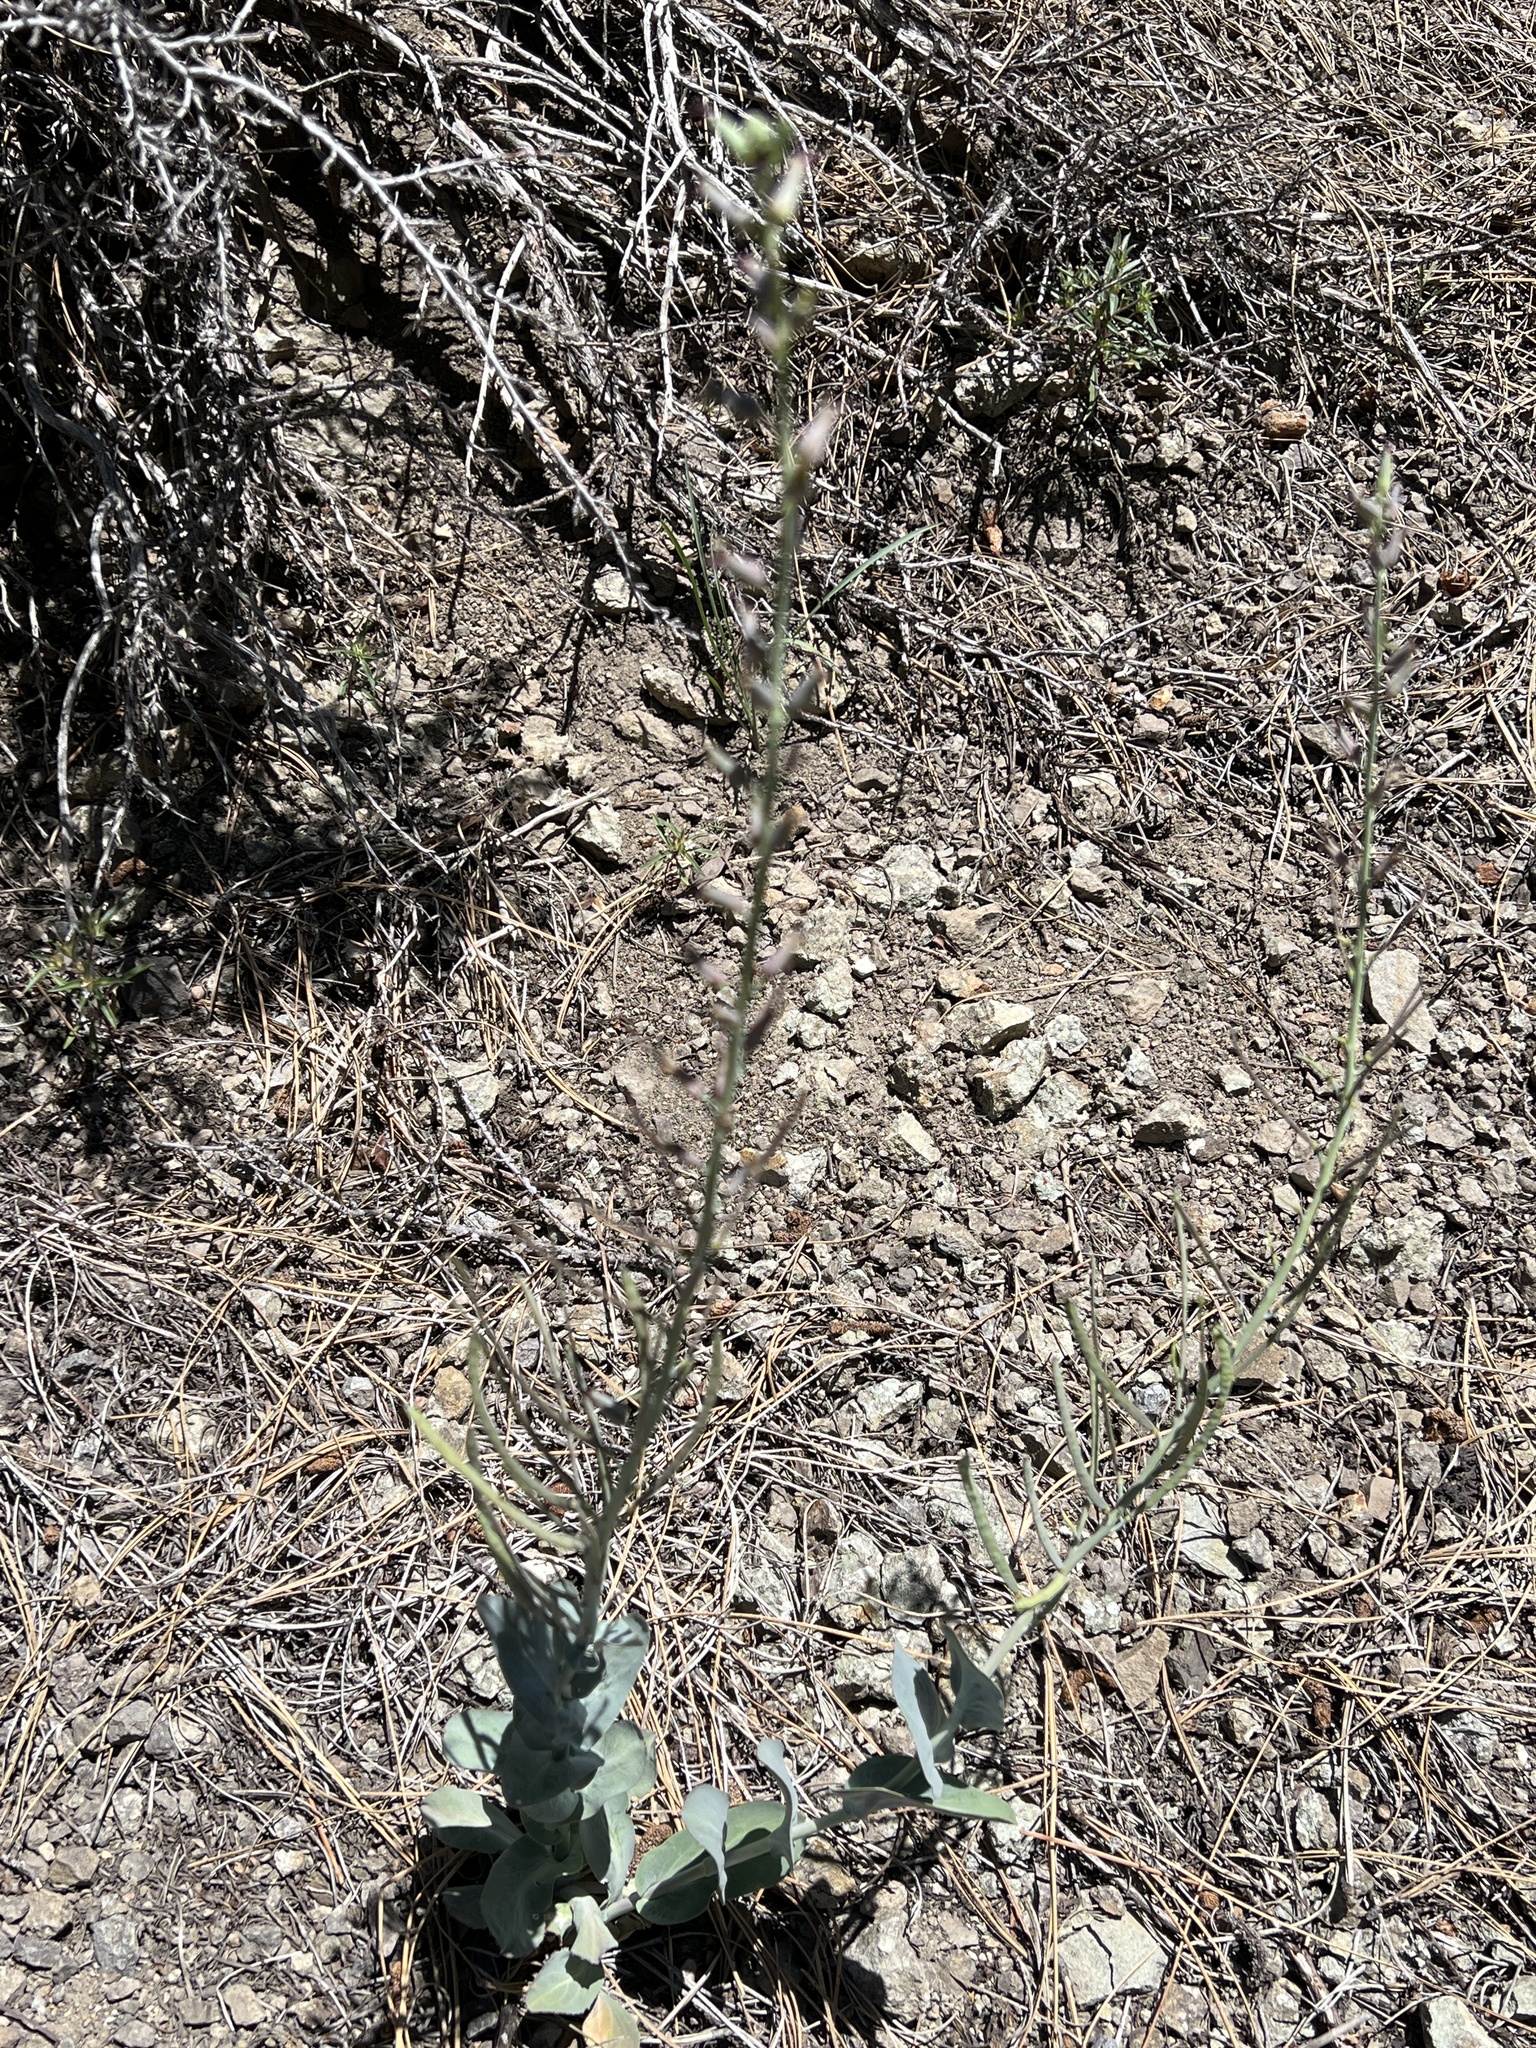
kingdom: Plantae
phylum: Tracheophyta
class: Magnoliopsida
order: Brassicales
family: Brassicaceae
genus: Streptanthus
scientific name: Streptanthus cordatus
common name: Heart-leaf jewel-flower
